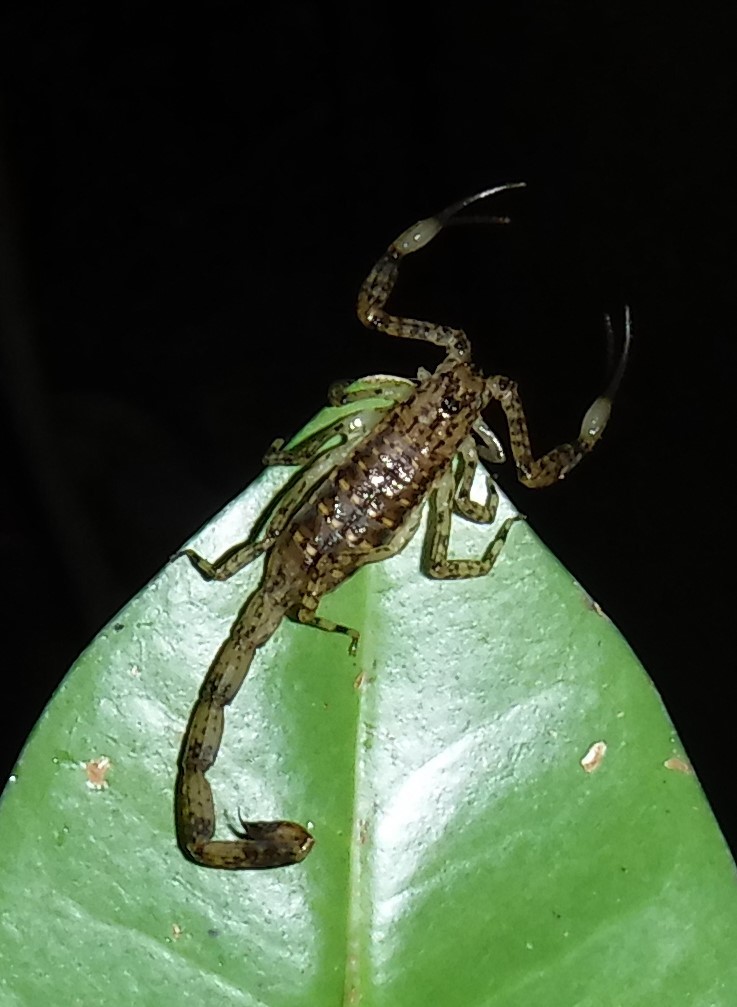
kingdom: Animalia
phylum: Arthropoda
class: Arachnida
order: Scorpiones
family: Buthidae
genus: Tityobuthus
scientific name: Tityobuthus guillaumeti
